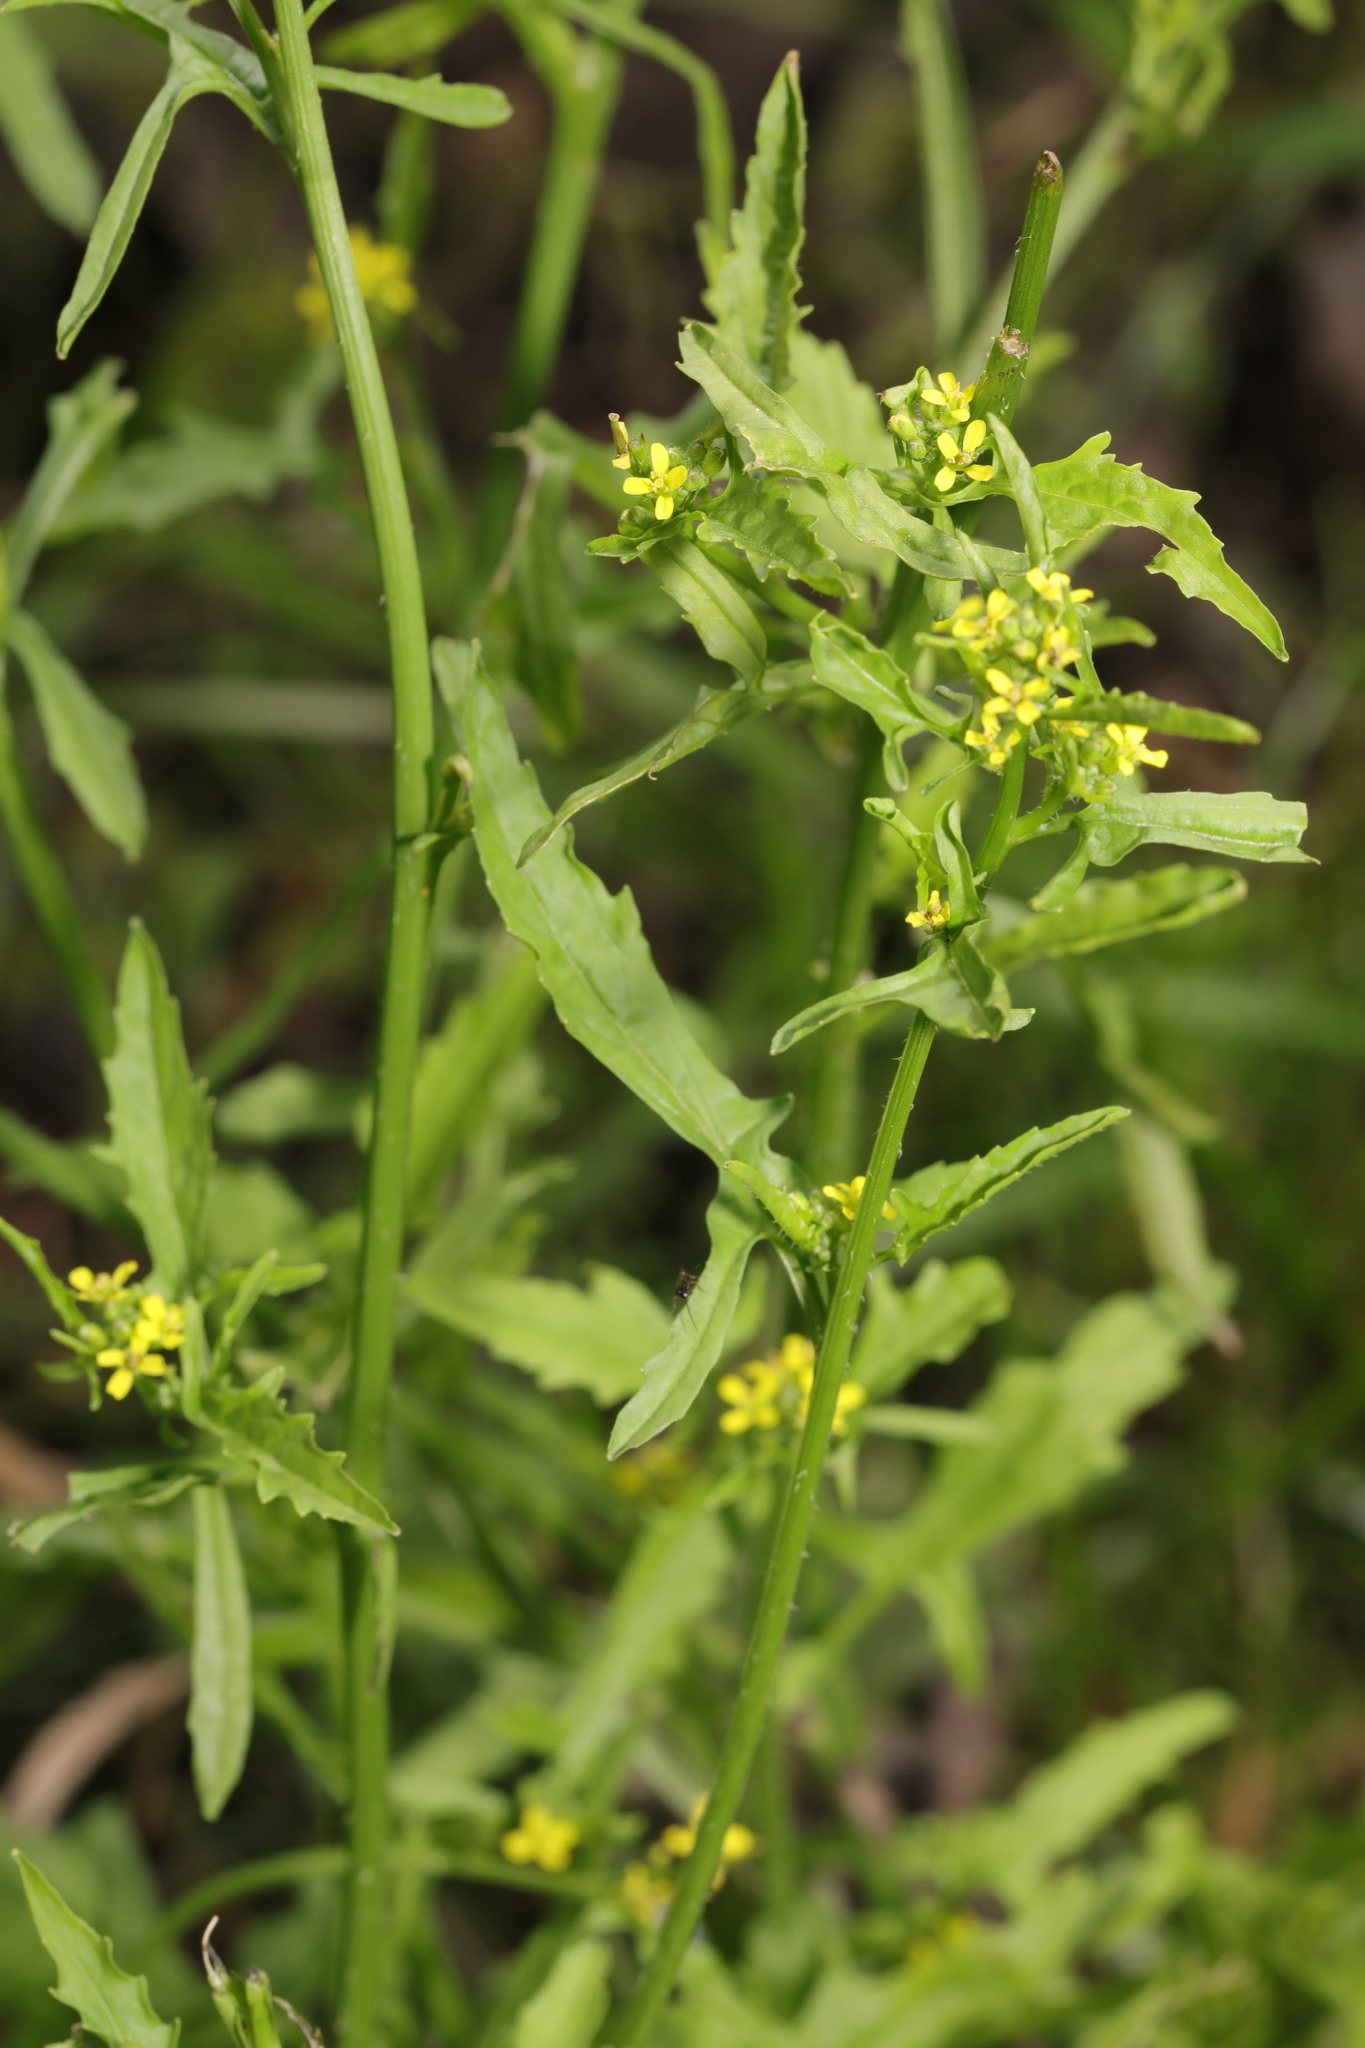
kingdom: Plantae
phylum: Tracheophyta
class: Magnoliopsida
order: Brassicales
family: Brassicaceae
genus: Sisymbrium
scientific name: Sisymbrium officinale
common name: Hedge mustard
